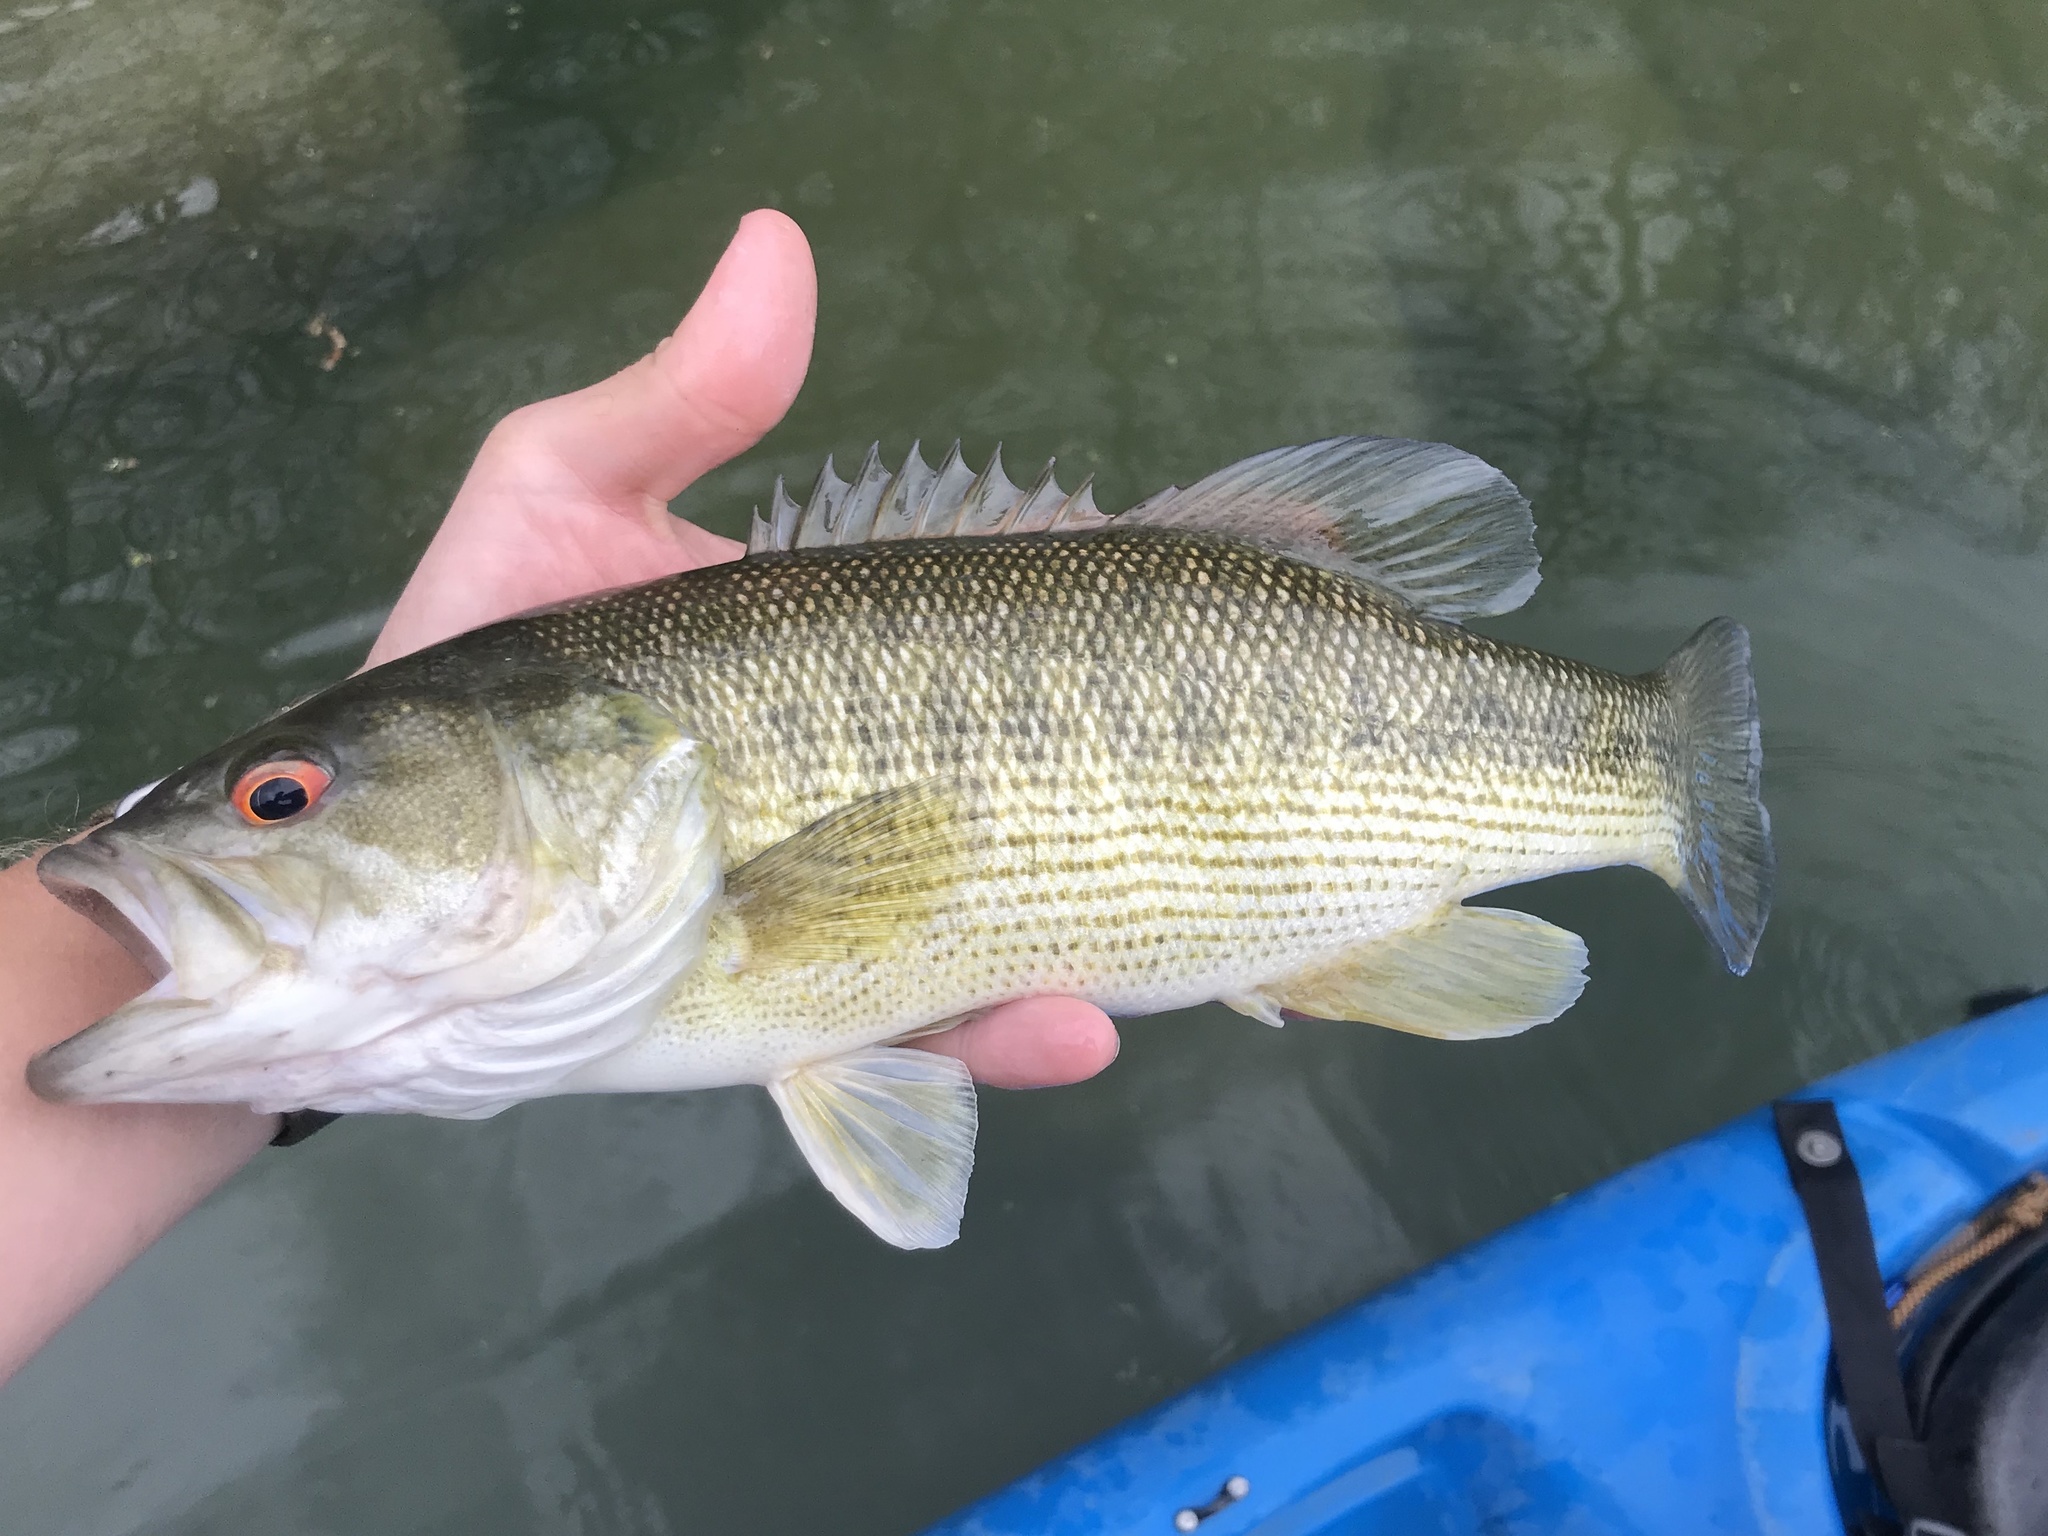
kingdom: Animalia
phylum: Chordata
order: Perciformes
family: Centrarchidae
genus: Micropterus
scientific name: Micropterus treculii
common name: Guadalupe bass
